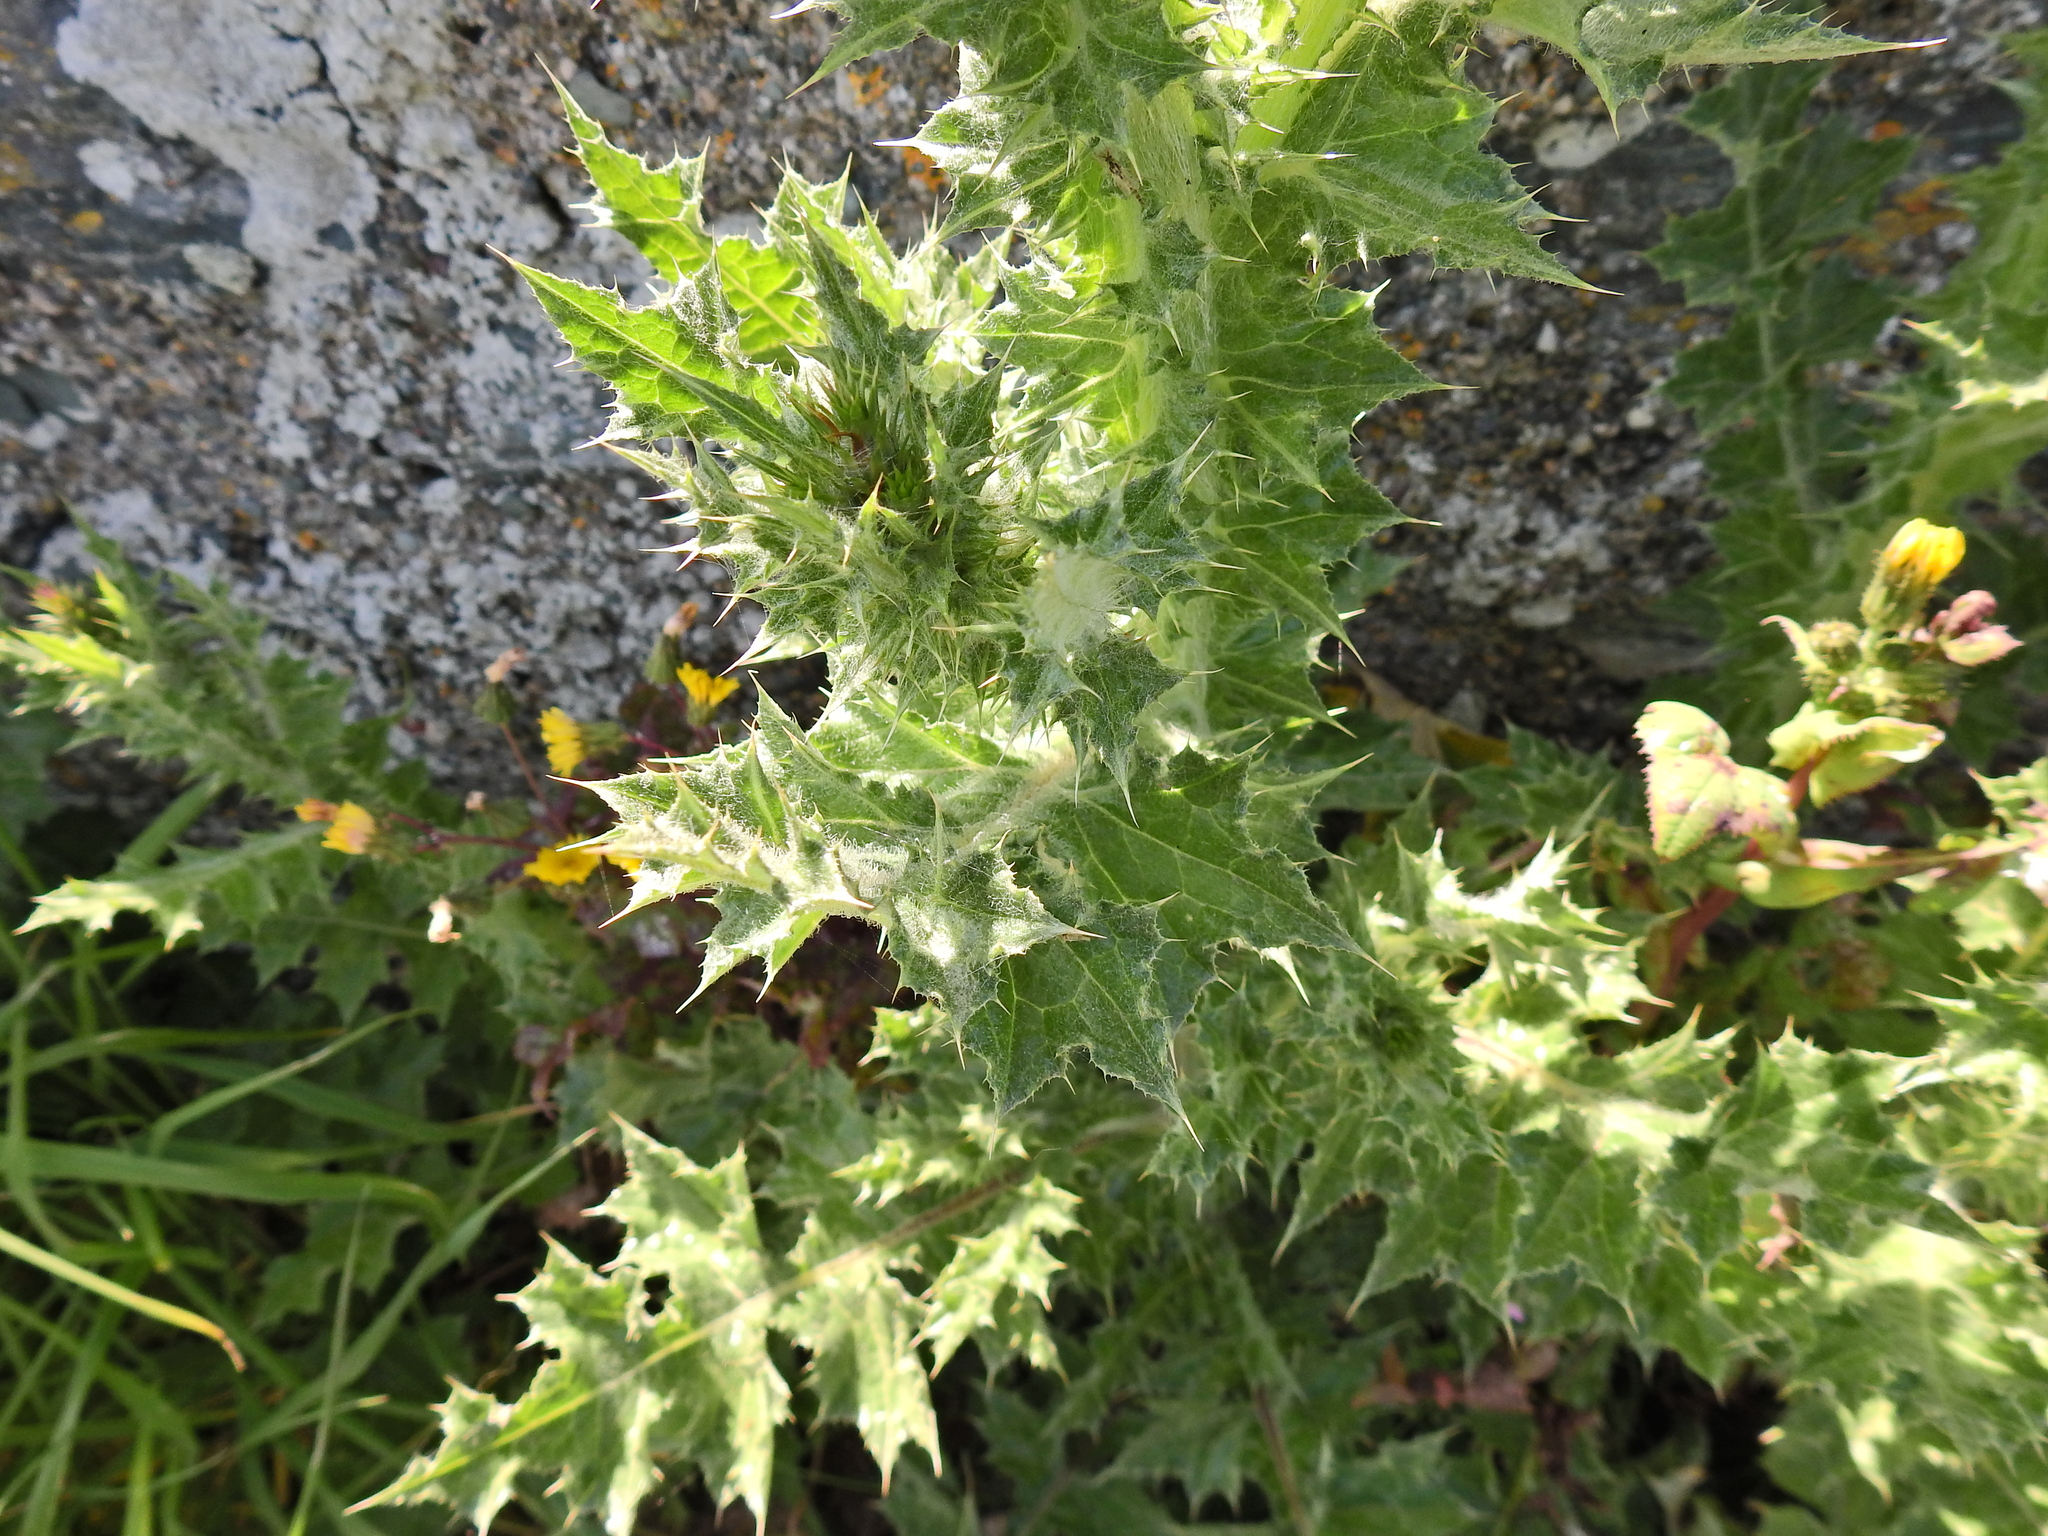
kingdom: Plantae
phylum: Tracheophyta
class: Magnoliopsida
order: Asterales
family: Asteraceae
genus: Carduus
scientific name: Carduus tenuiflorus
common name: Slender thistle
